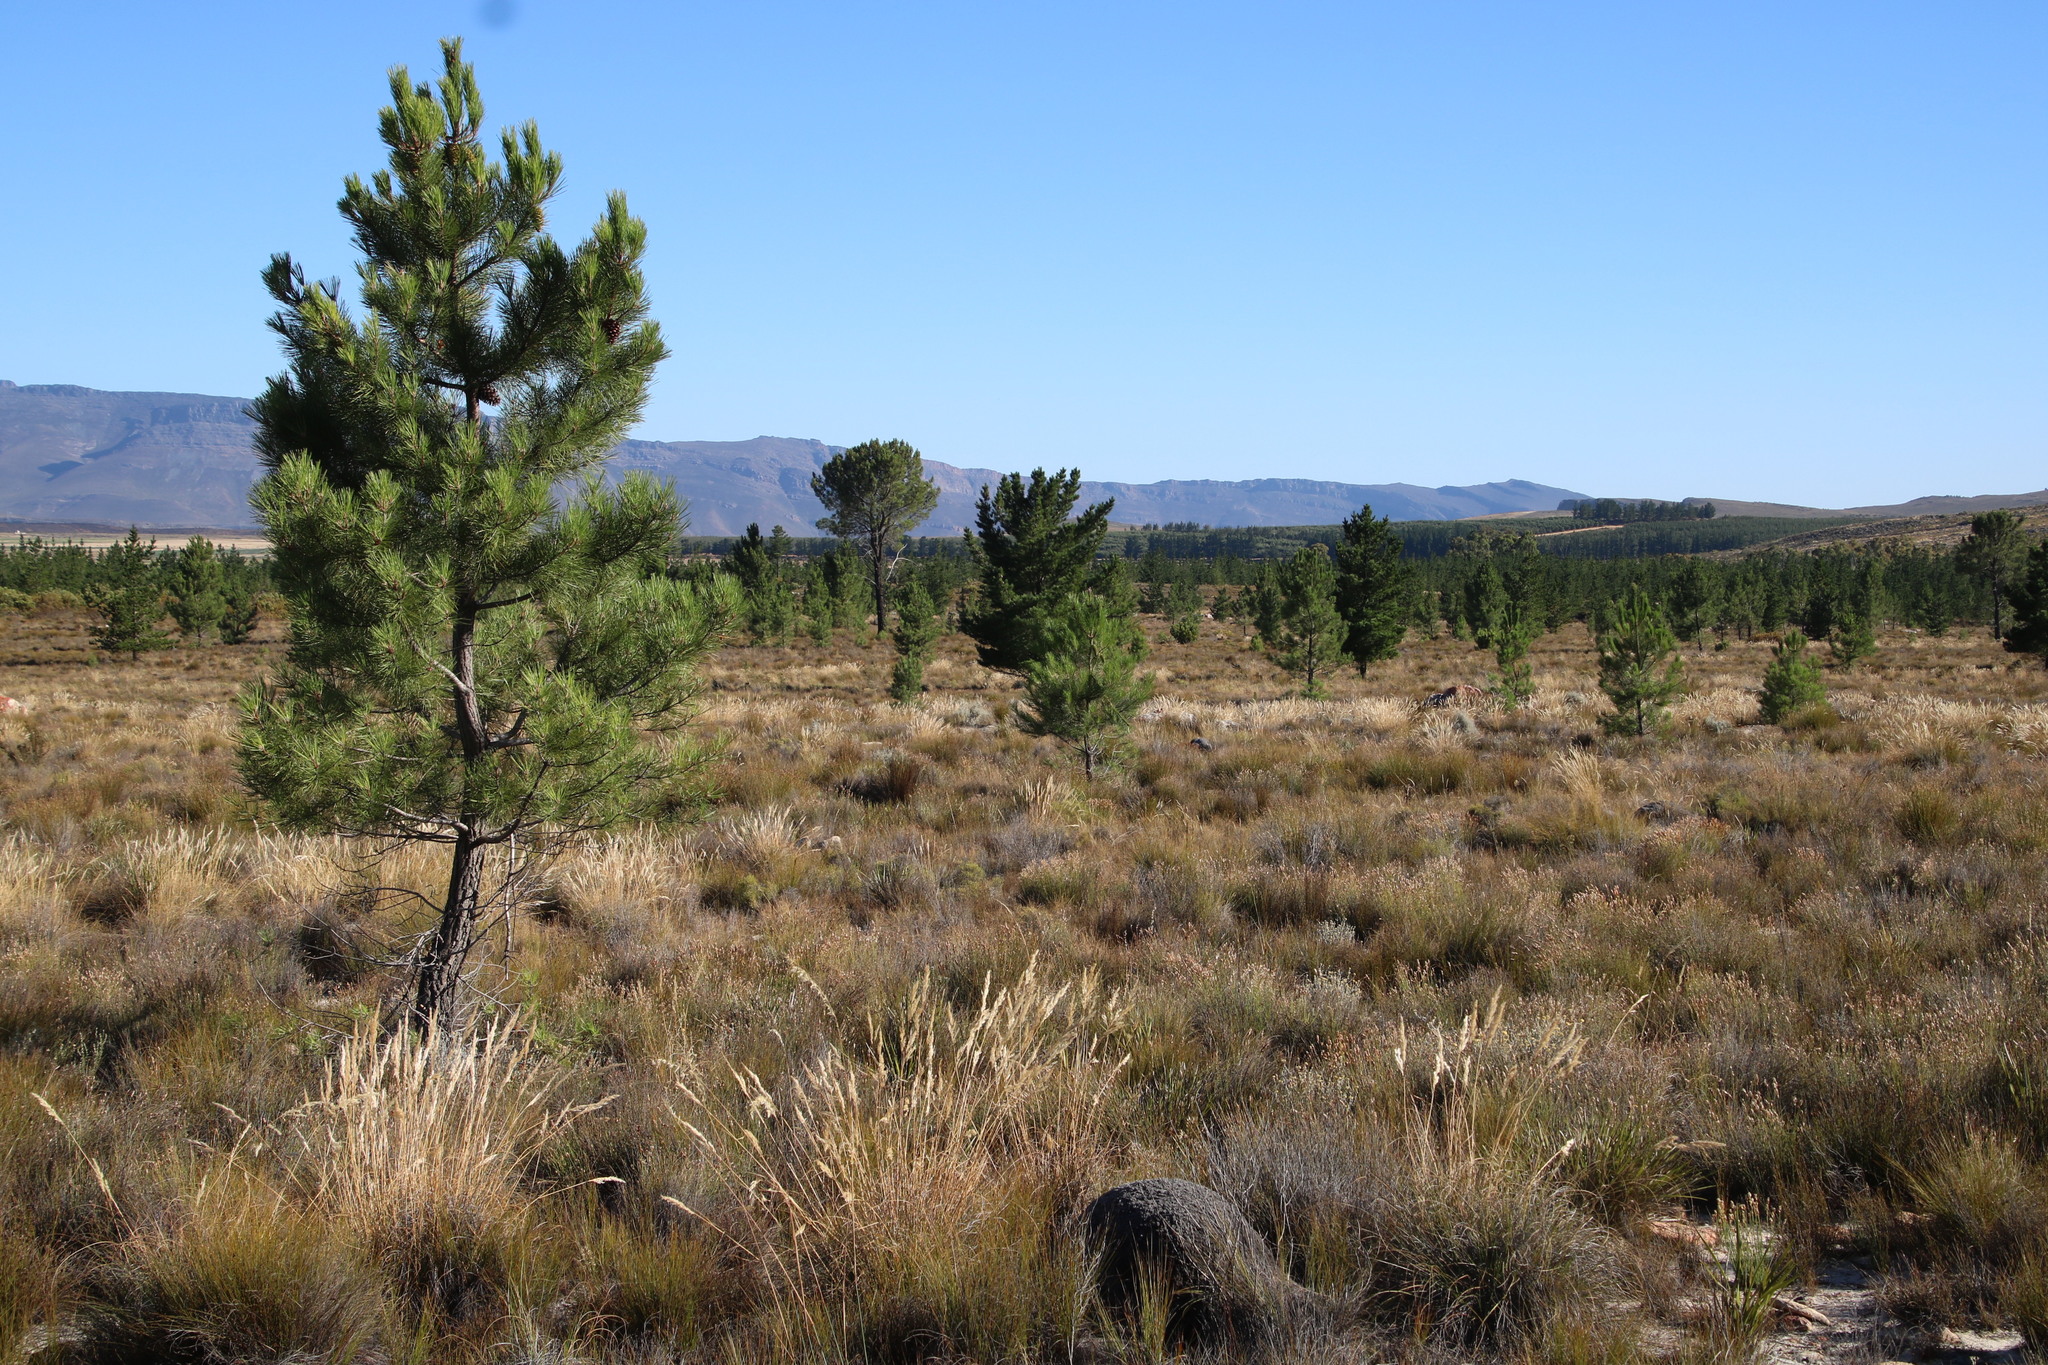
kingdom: Plantae
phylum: Tracheophyta
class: Pinopsida
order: Pinales
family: Pinaceae
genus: Pinus
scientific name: Pinus pinaster
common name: Maritime pine
